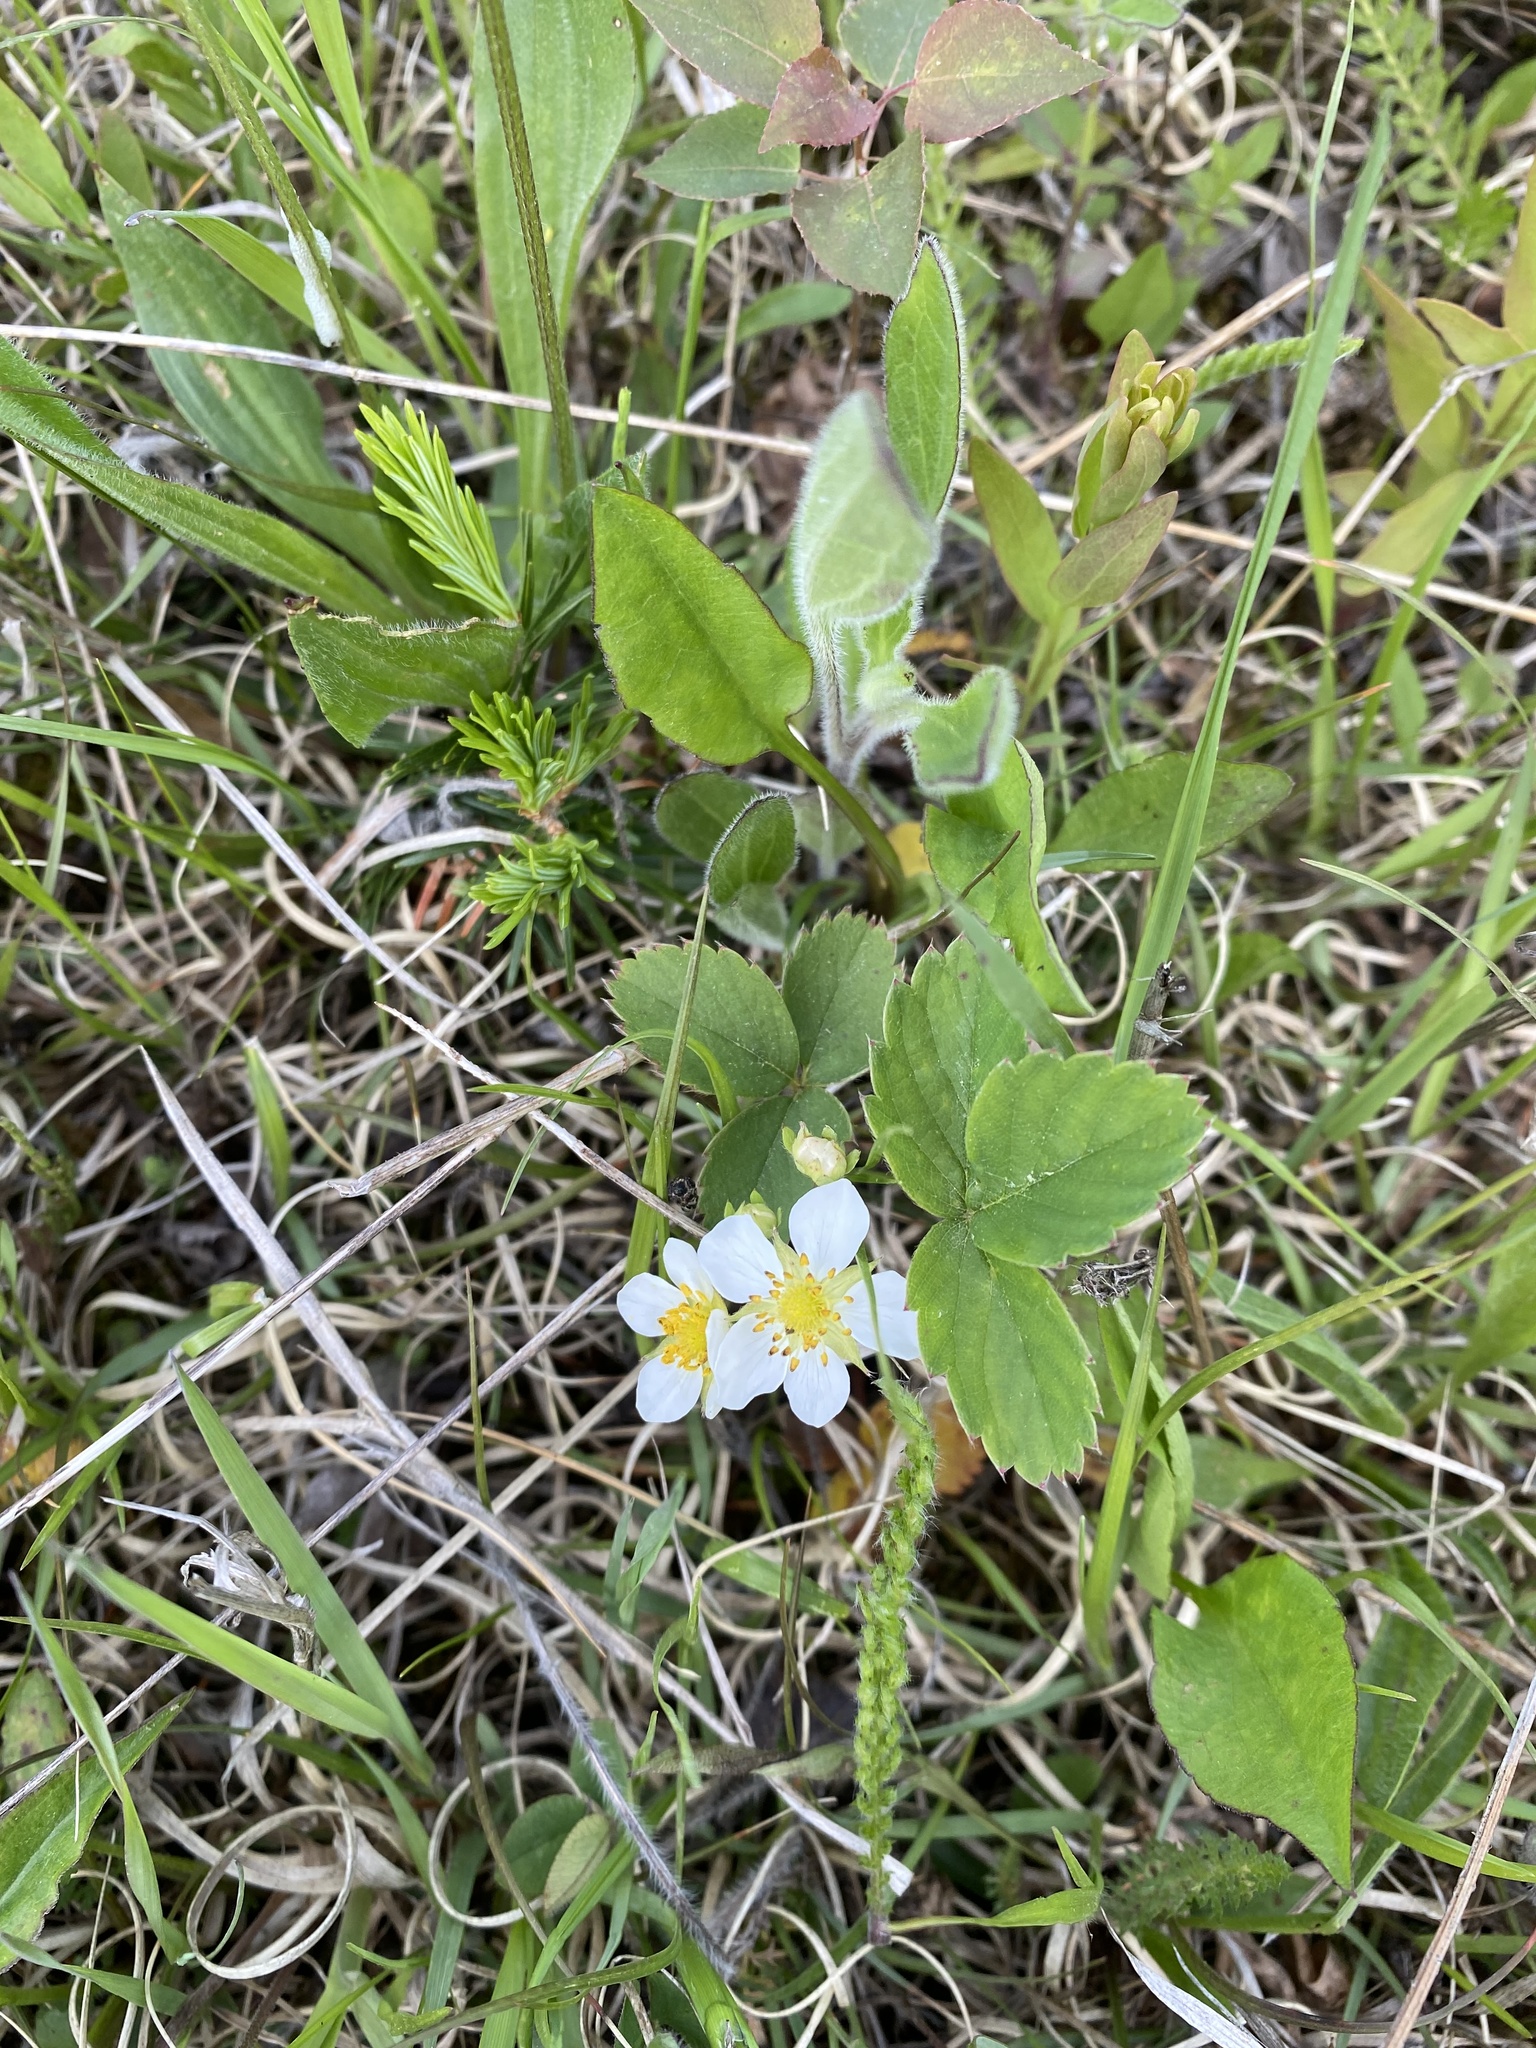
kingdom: Plantae
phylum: Tracheophyta
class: Magnoliopsida
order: Rosales
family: Rosaceae
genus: Fragaria
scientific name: Fragaria virginiana
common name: Thickleaved wild strawberry
